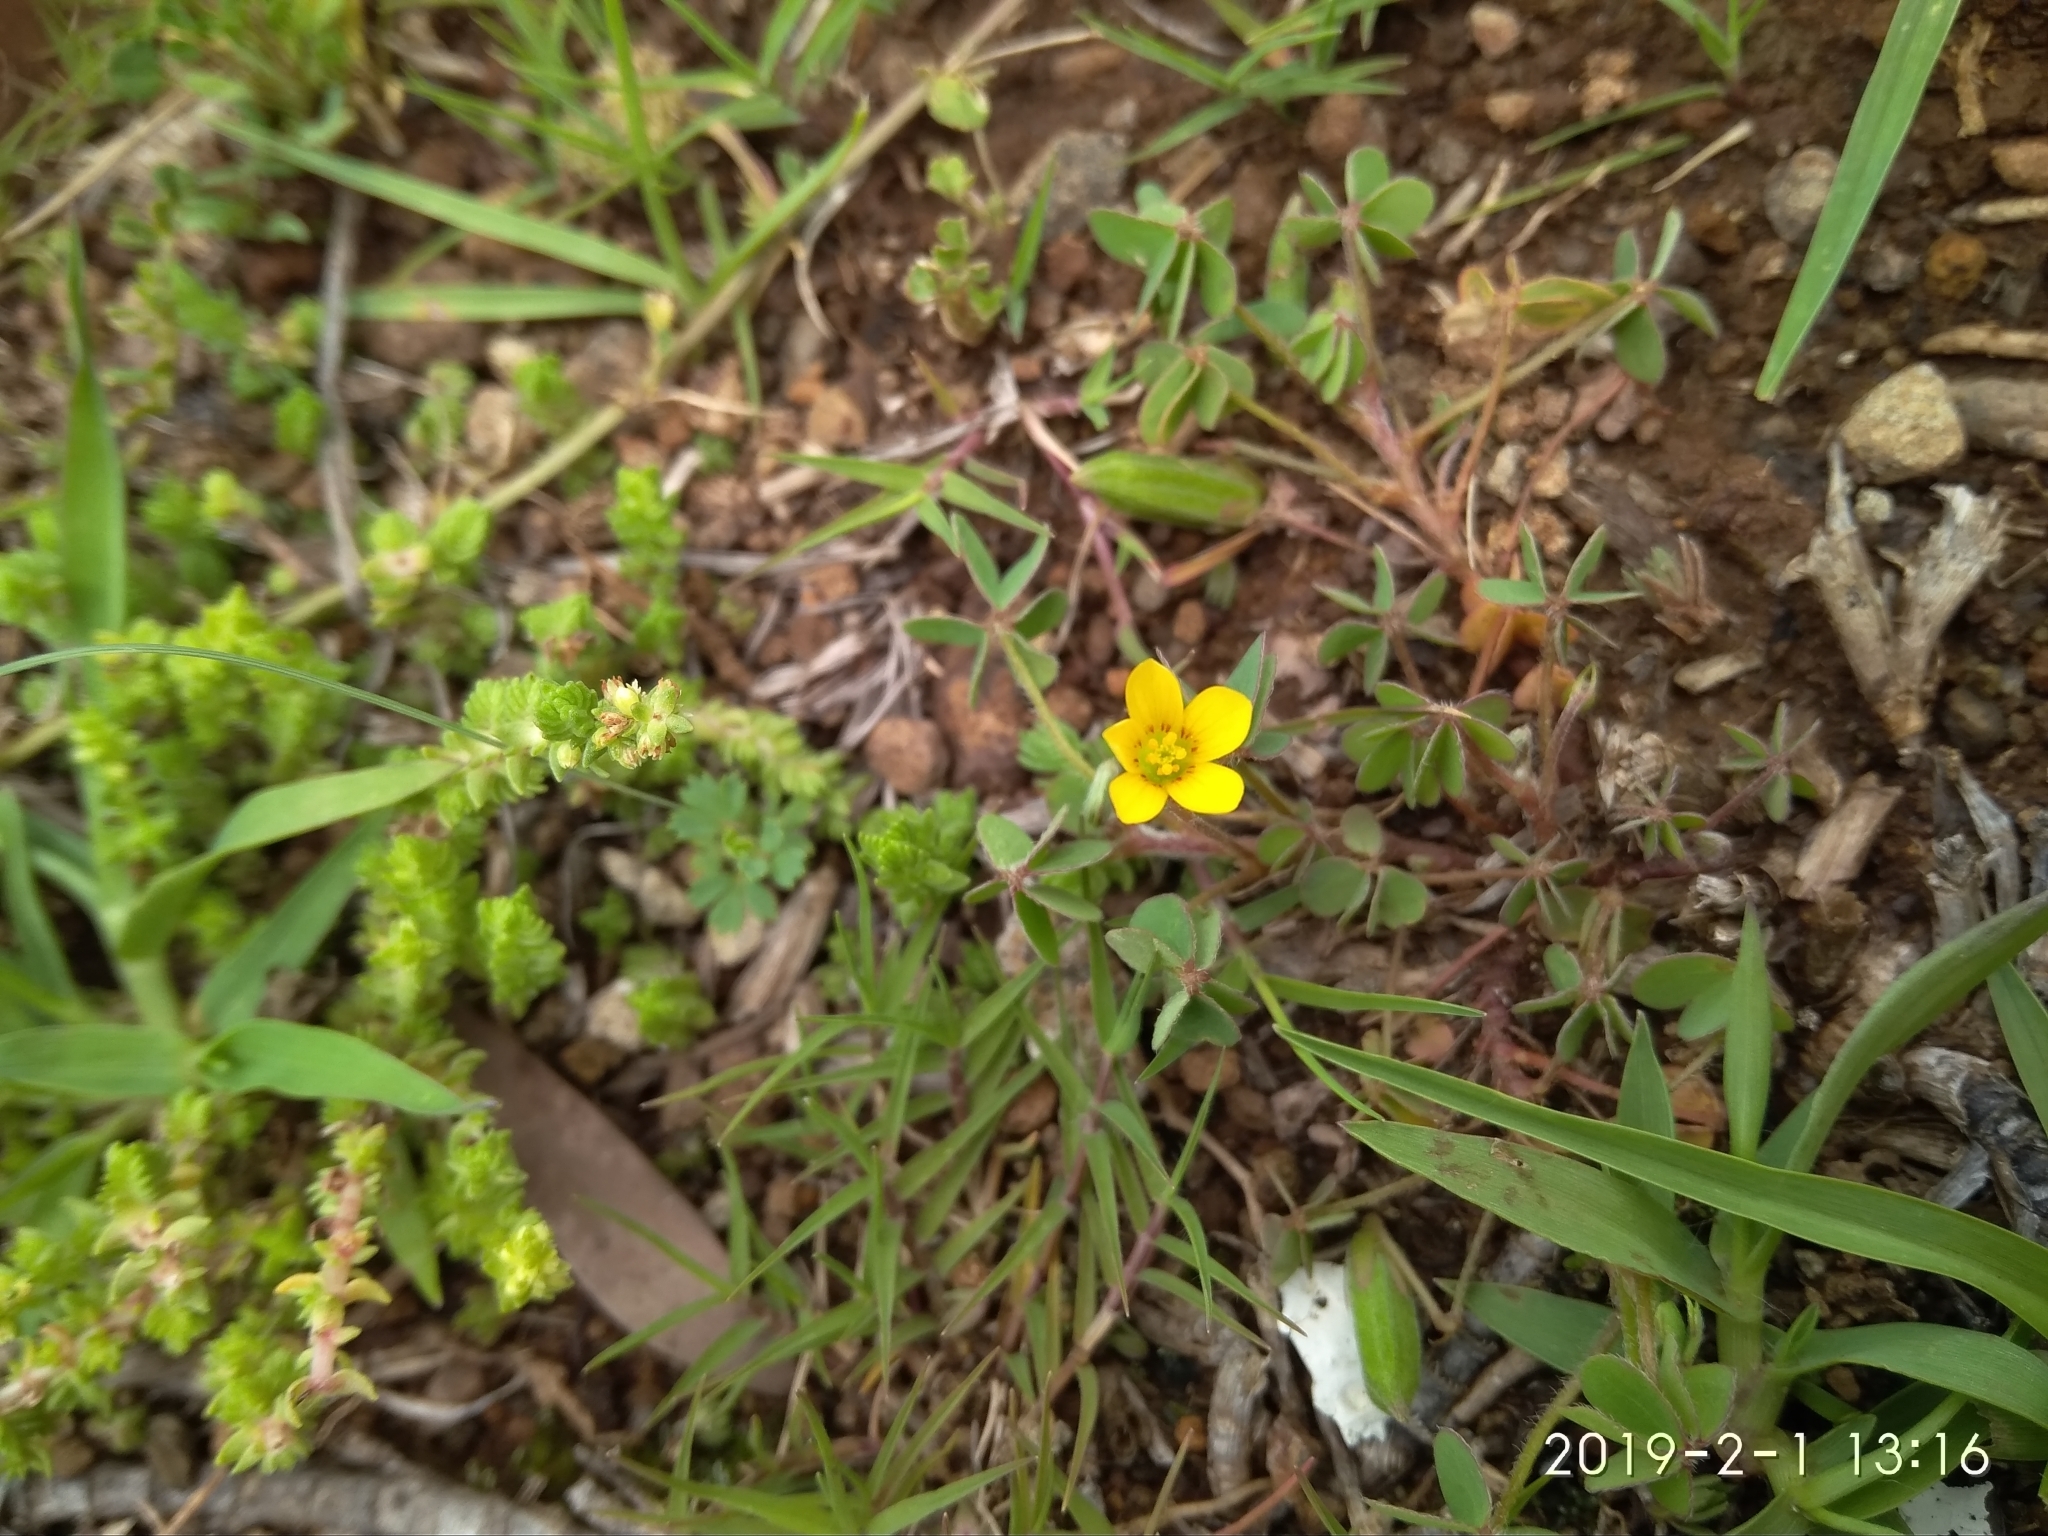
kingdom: Plantae
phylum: Tracheophyta
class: Magnoliopsida
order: Oxalidales
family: Oxalidaceae
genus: Oxalis
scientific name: Oxalis corniculata
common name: Procumbent yellow-sorrel
